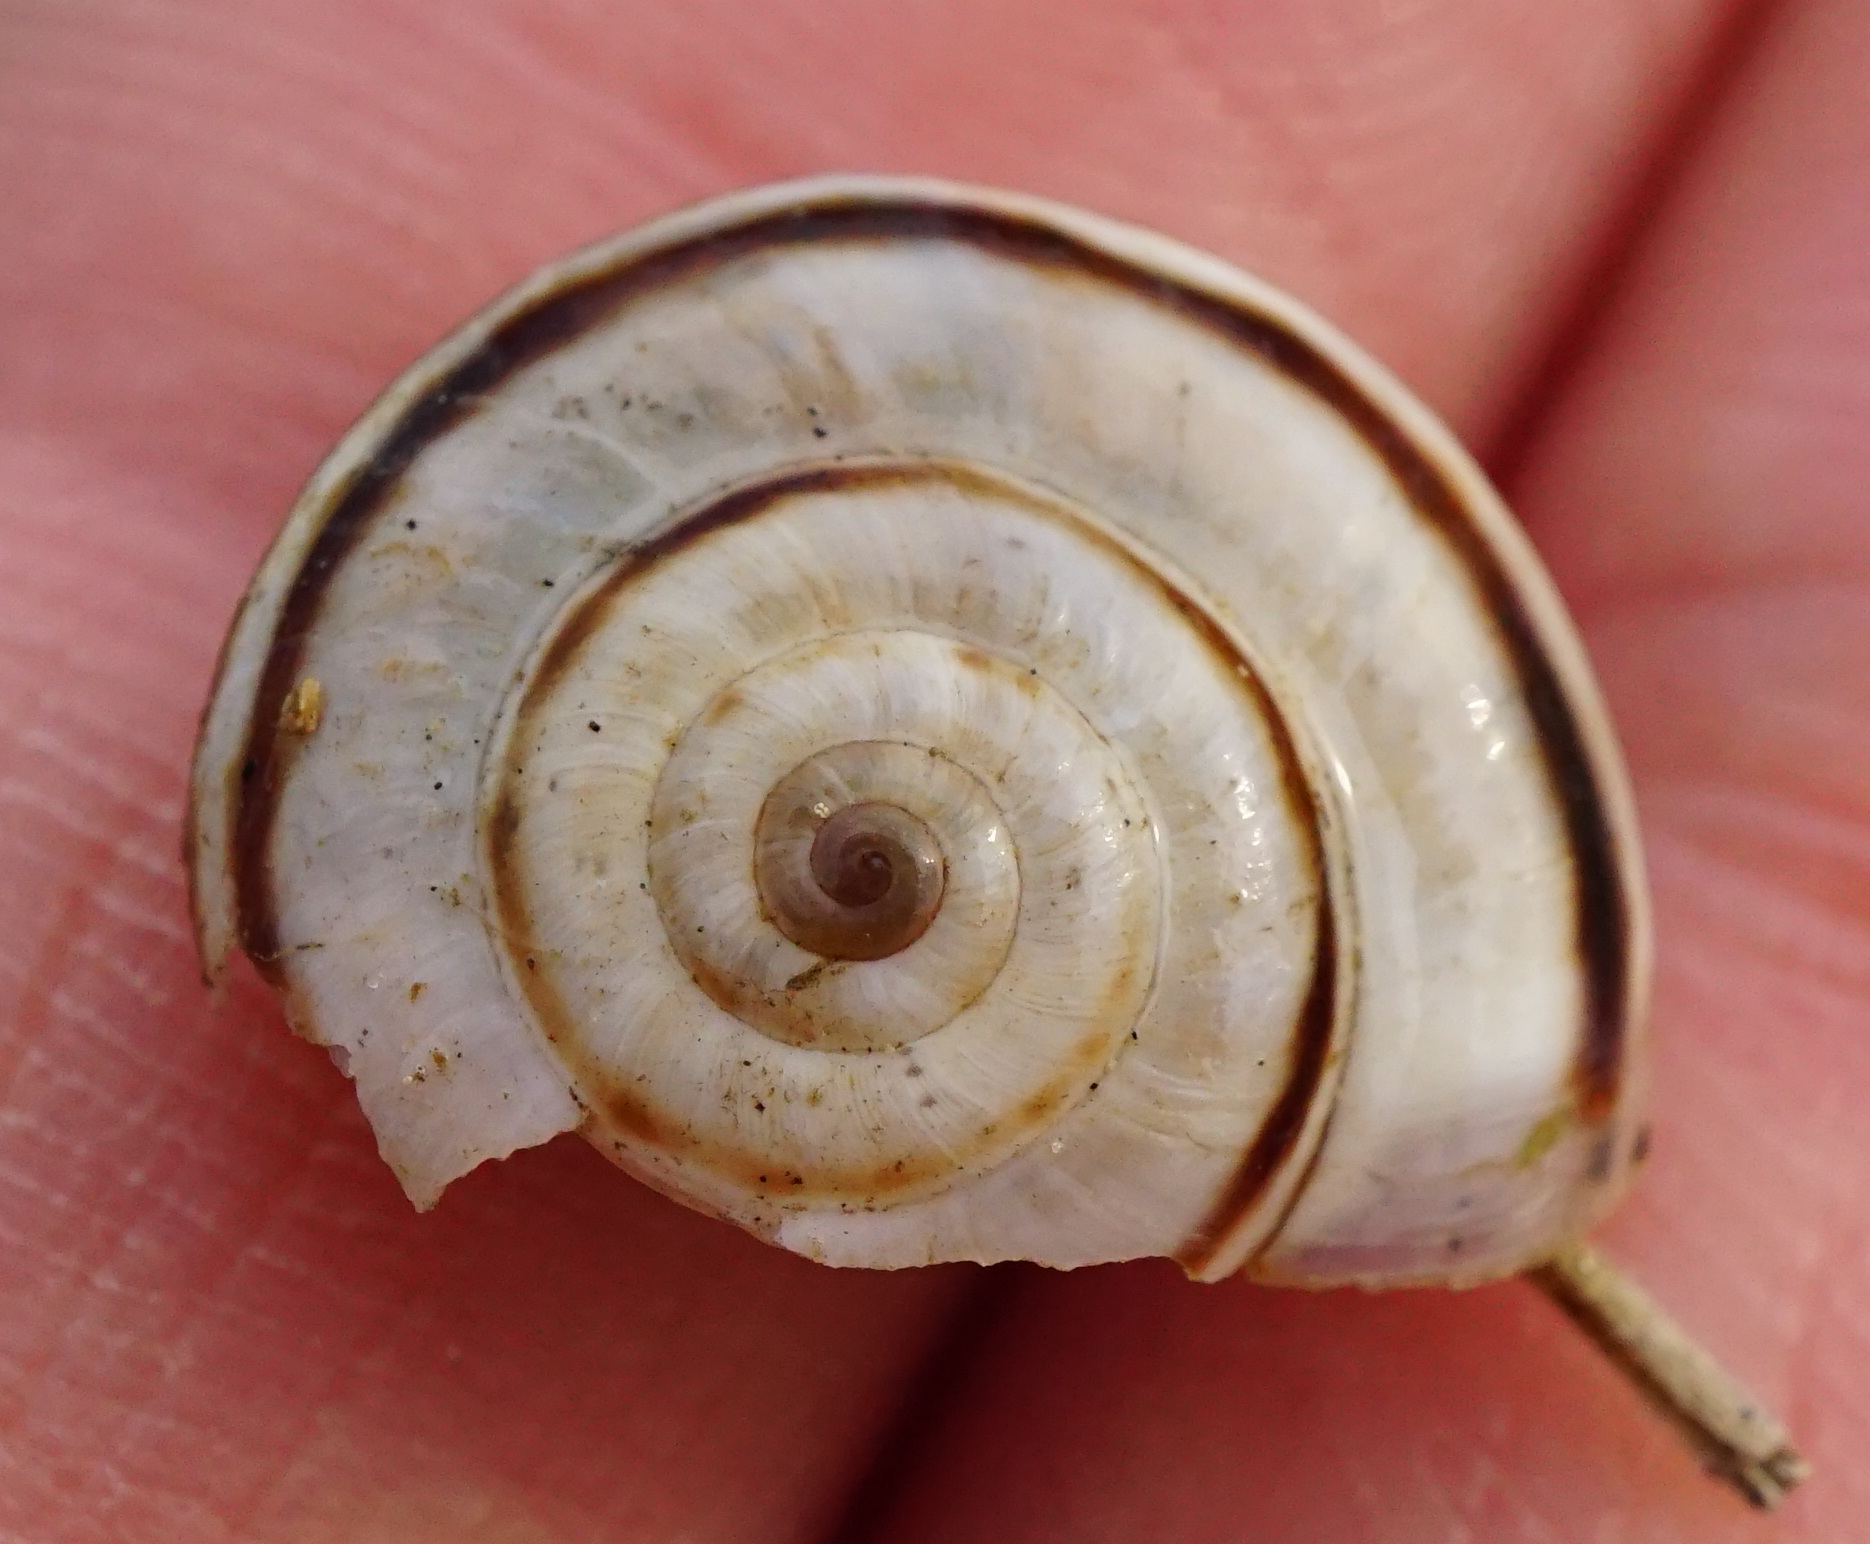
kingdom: Animalia
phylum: Mollusca
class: Gastropoda
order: Stylommatophora
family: Geomitridae
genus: Xerolenta
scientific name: Xerolenta obvia
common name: White heath snail
